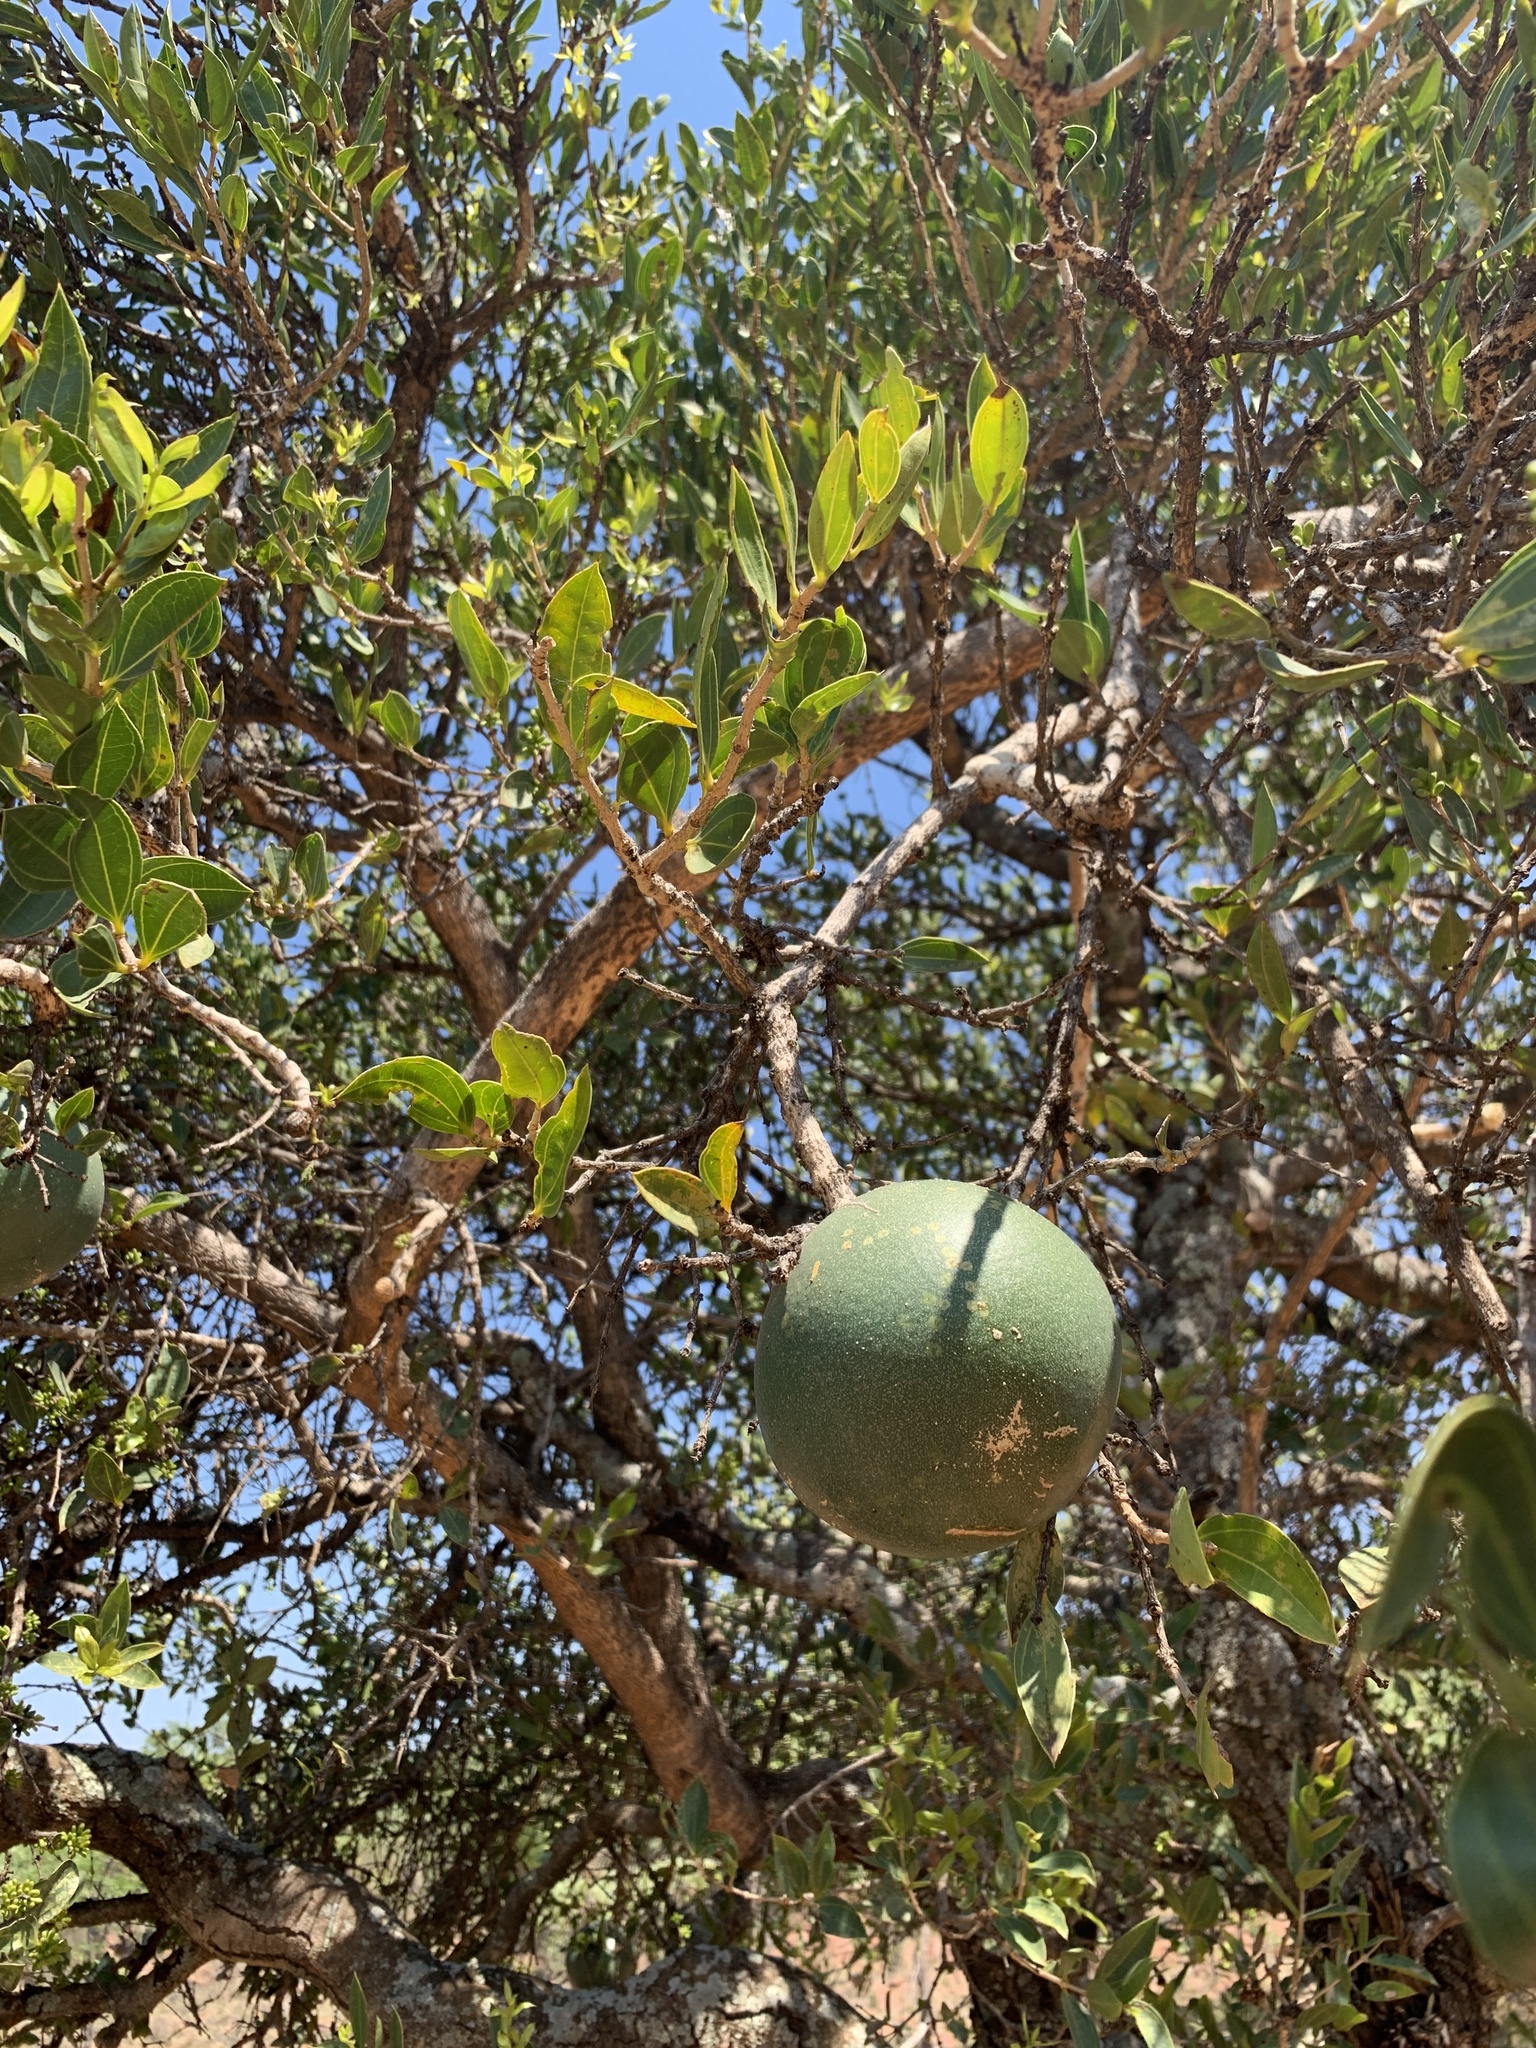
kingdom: Plantae
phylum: Tracheophyta
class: Magnoliopsida
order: Gentianales
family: Loganiaceae
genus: Strychnos
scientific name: Strychnos pungens
